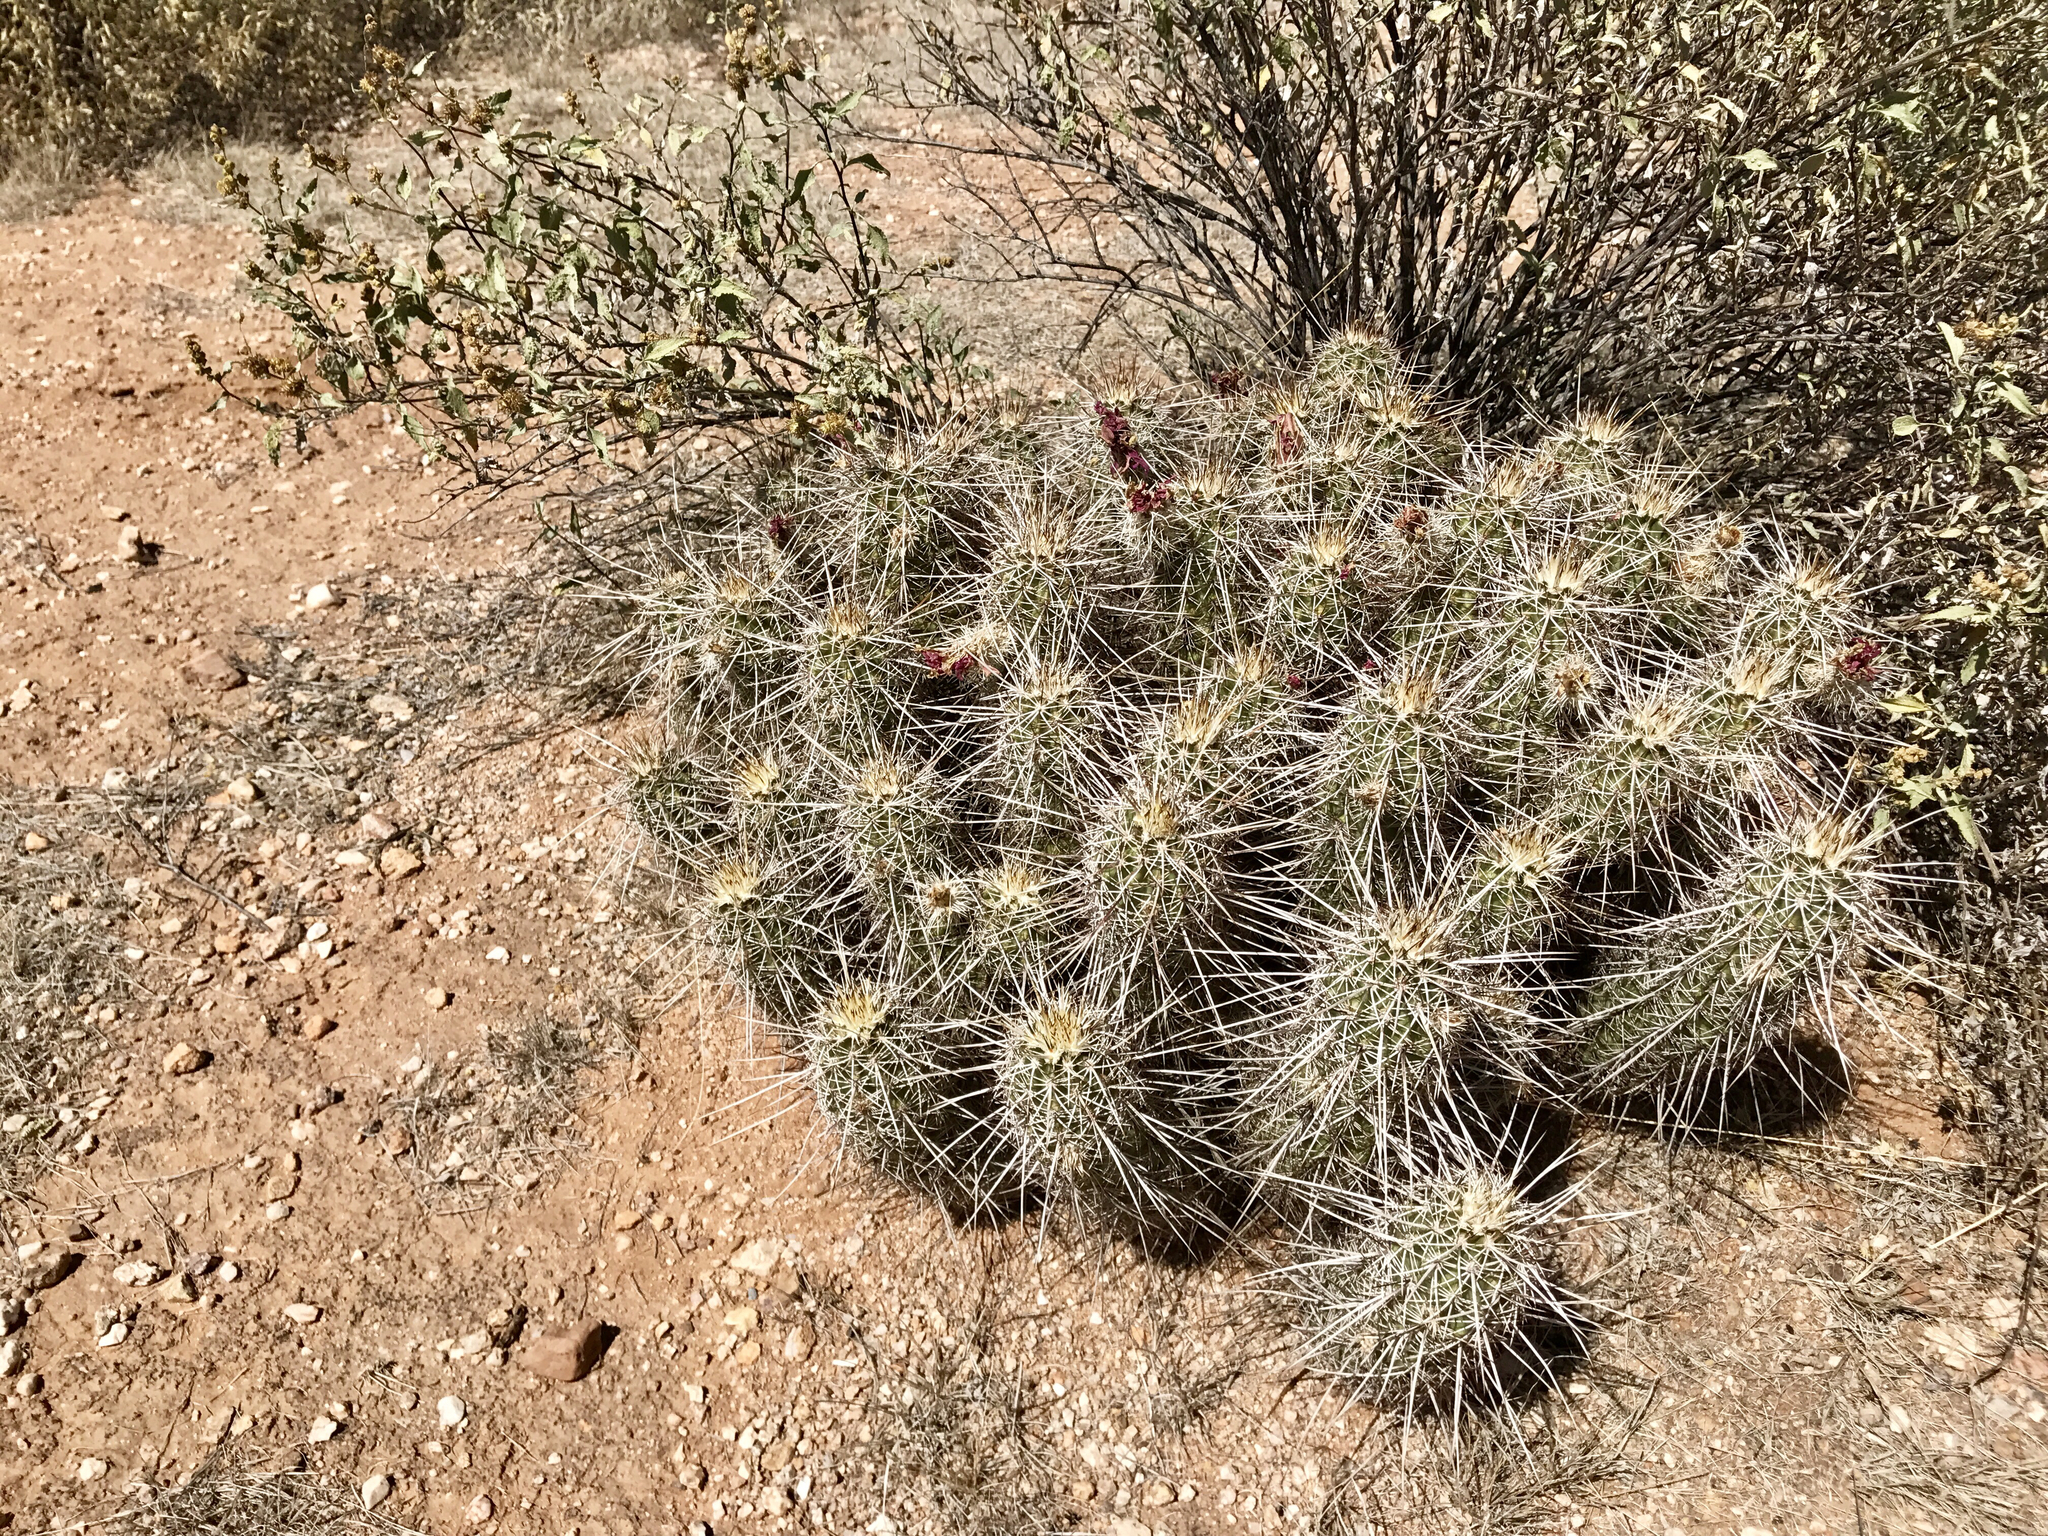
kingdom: Plantae
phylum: Tracheophyta
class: Magnoliopsida
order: Caryophyllales
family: Cactaceae
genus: Echinocereus
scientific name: Echinocereus fasciculatus
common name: Bundle hedgehog
